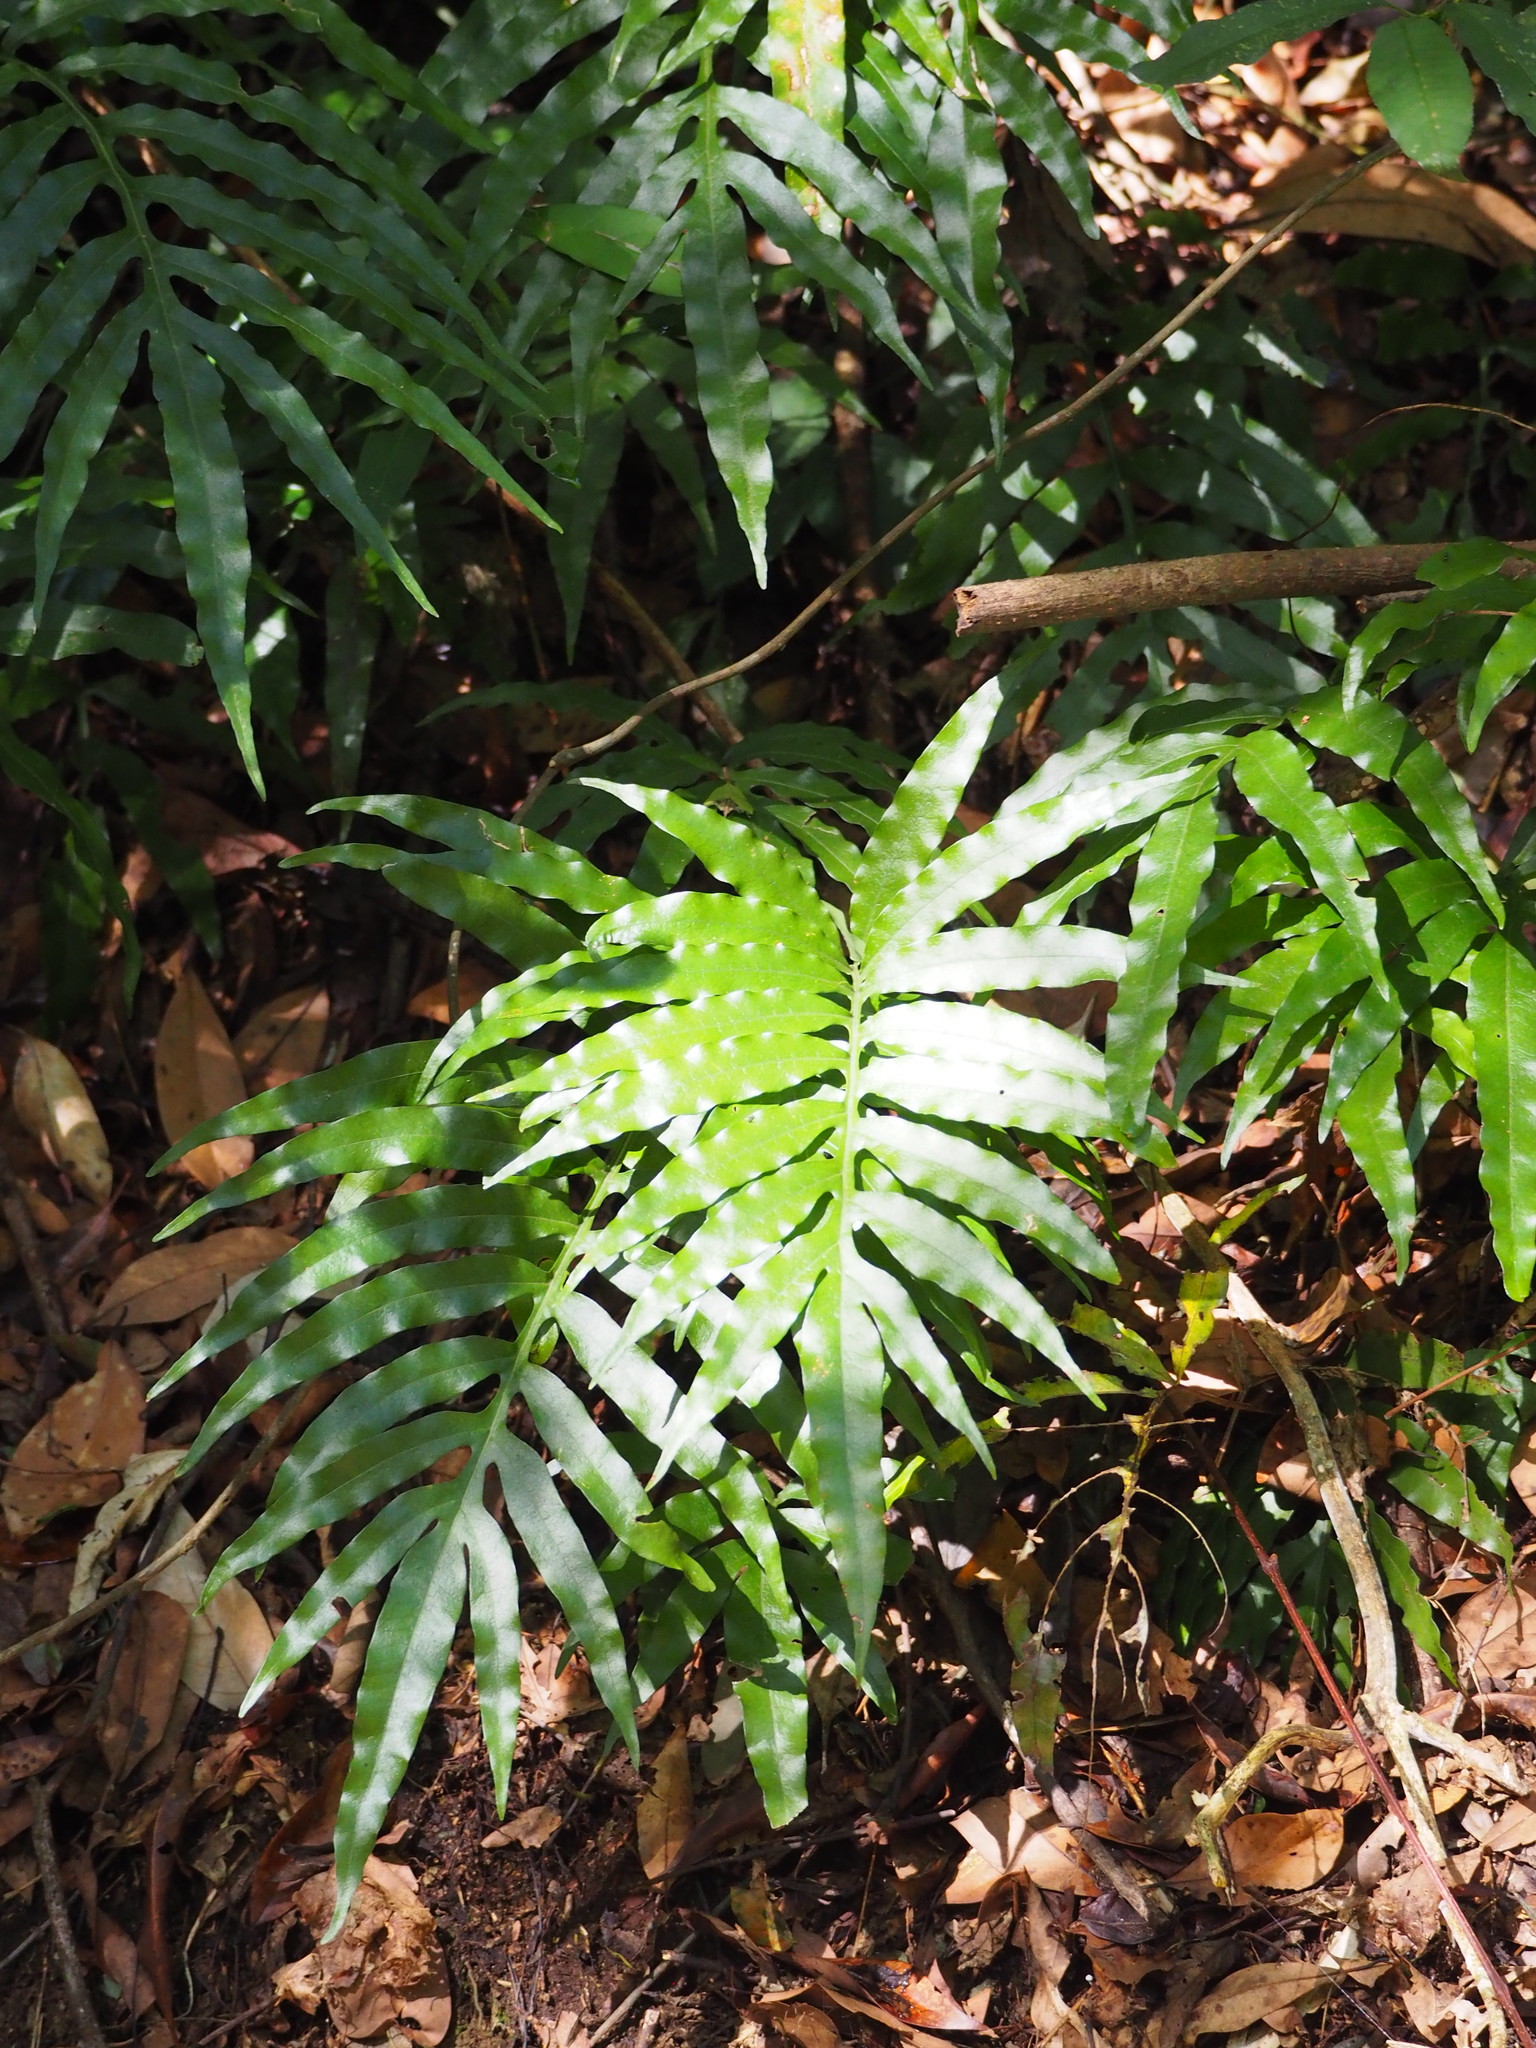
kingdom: Plantae
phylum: Tracheophyta
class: Polypodiopsida
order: Polypodiales
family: Polypodiaceae
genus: Leptochilus
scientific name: Leptochilus ellipticus
